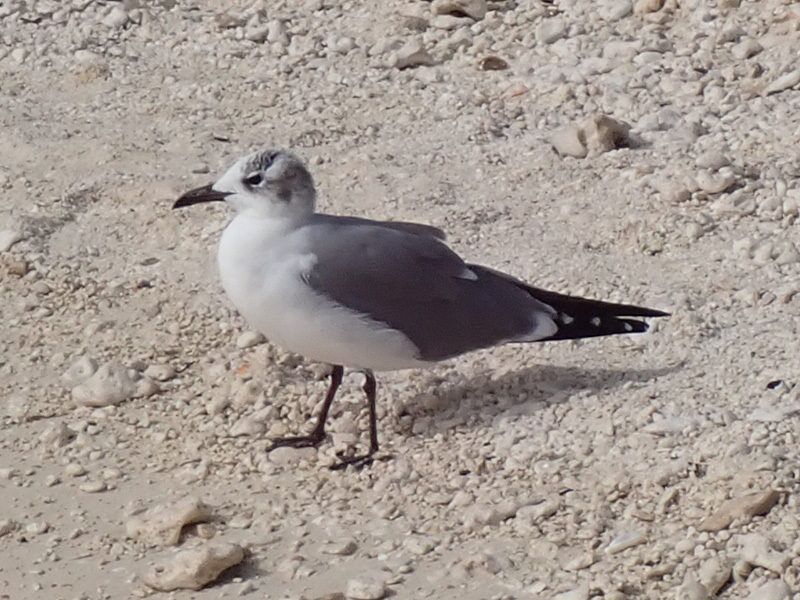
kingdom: Animalia
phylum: Chordata
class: Aves
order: Charadriiformes
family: Laridae
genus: Leucophaeus
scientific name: Leucophaeus atricilla
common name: Laughing gull
